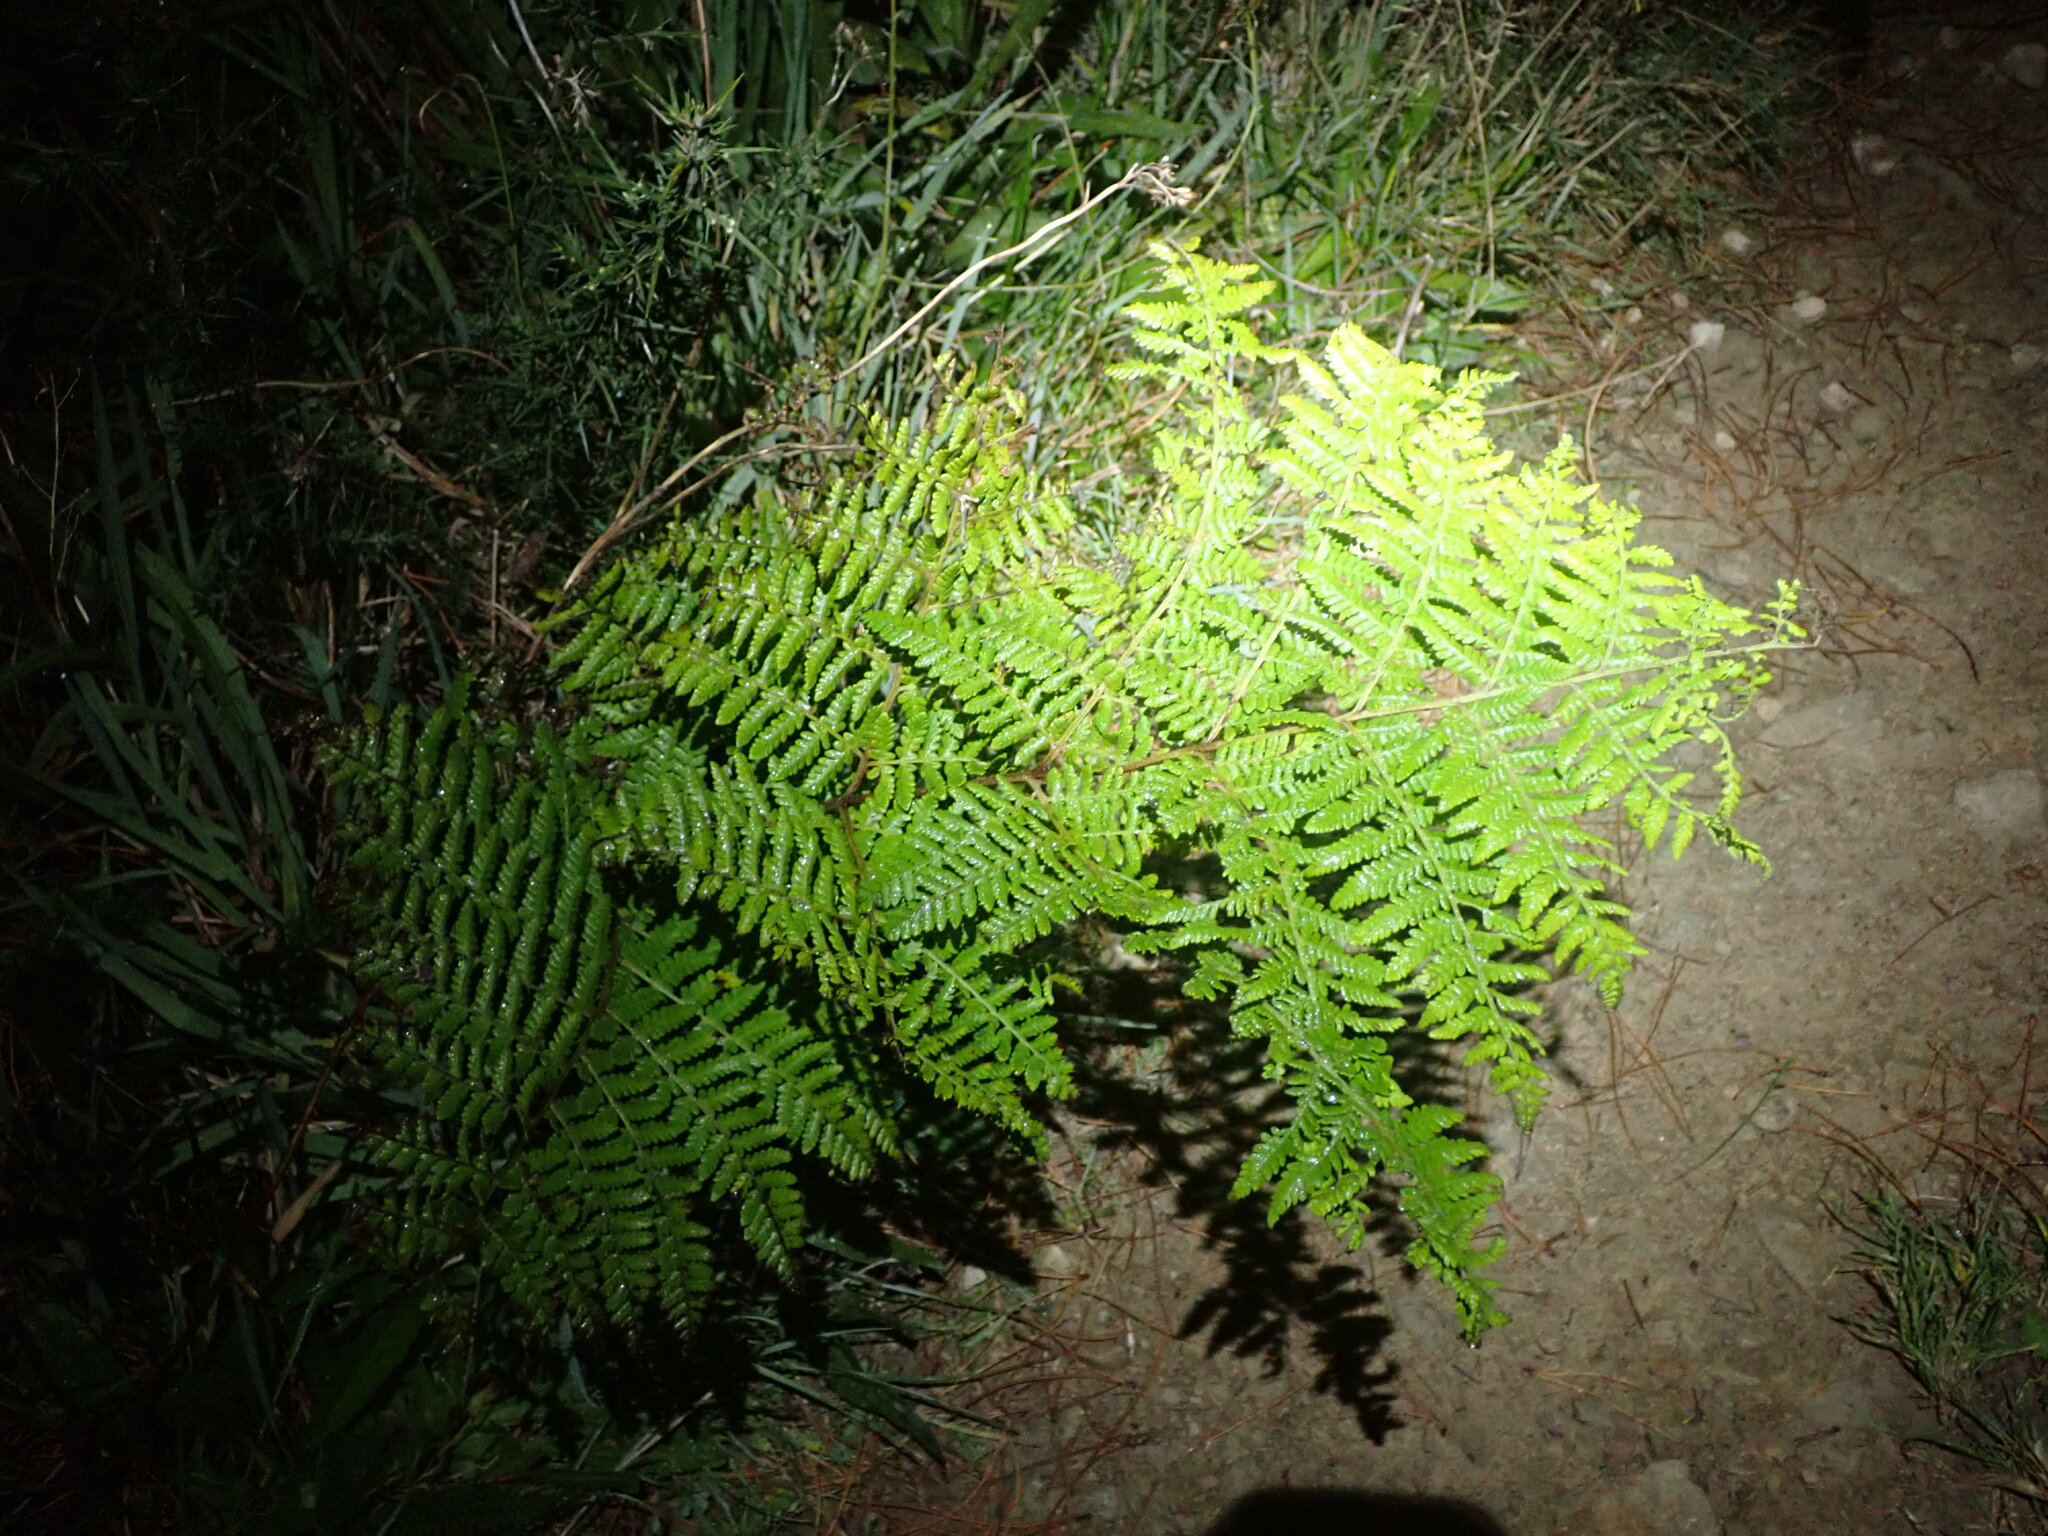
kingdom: Plantae
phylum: Tracheophyta
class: Polypodiopsida
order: Polypodiales
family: Dennstaedtiaceae
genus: Hypolepis
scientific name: Hypolepis ambigua
